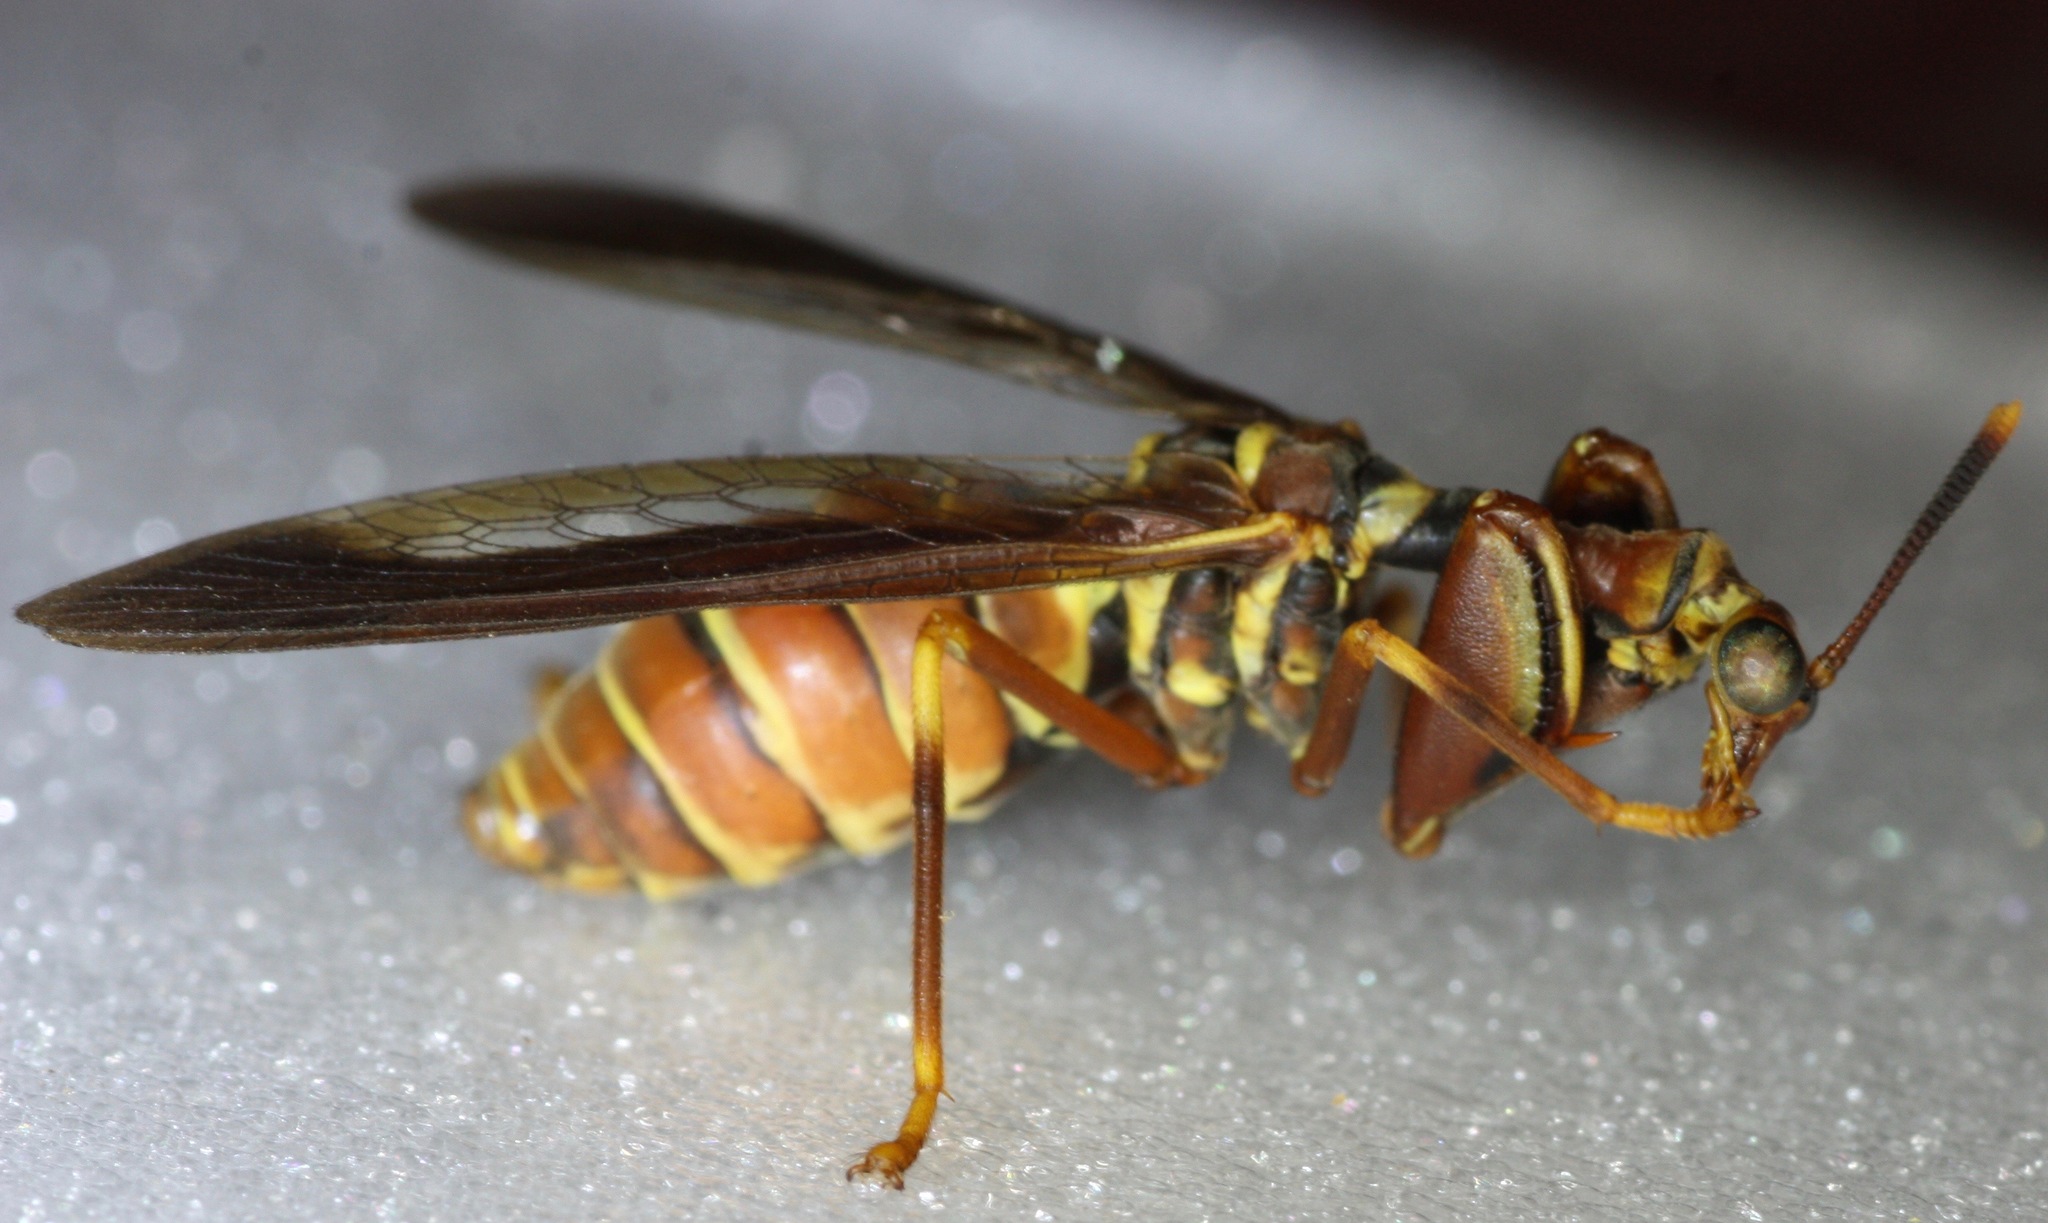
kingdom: Animalia
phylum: Arthropoda
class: Insecta
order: Neuroptera
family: Mantispidae
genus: Climaciella
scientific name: Climaciella brunnea
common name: Brown wasp mantidfly
